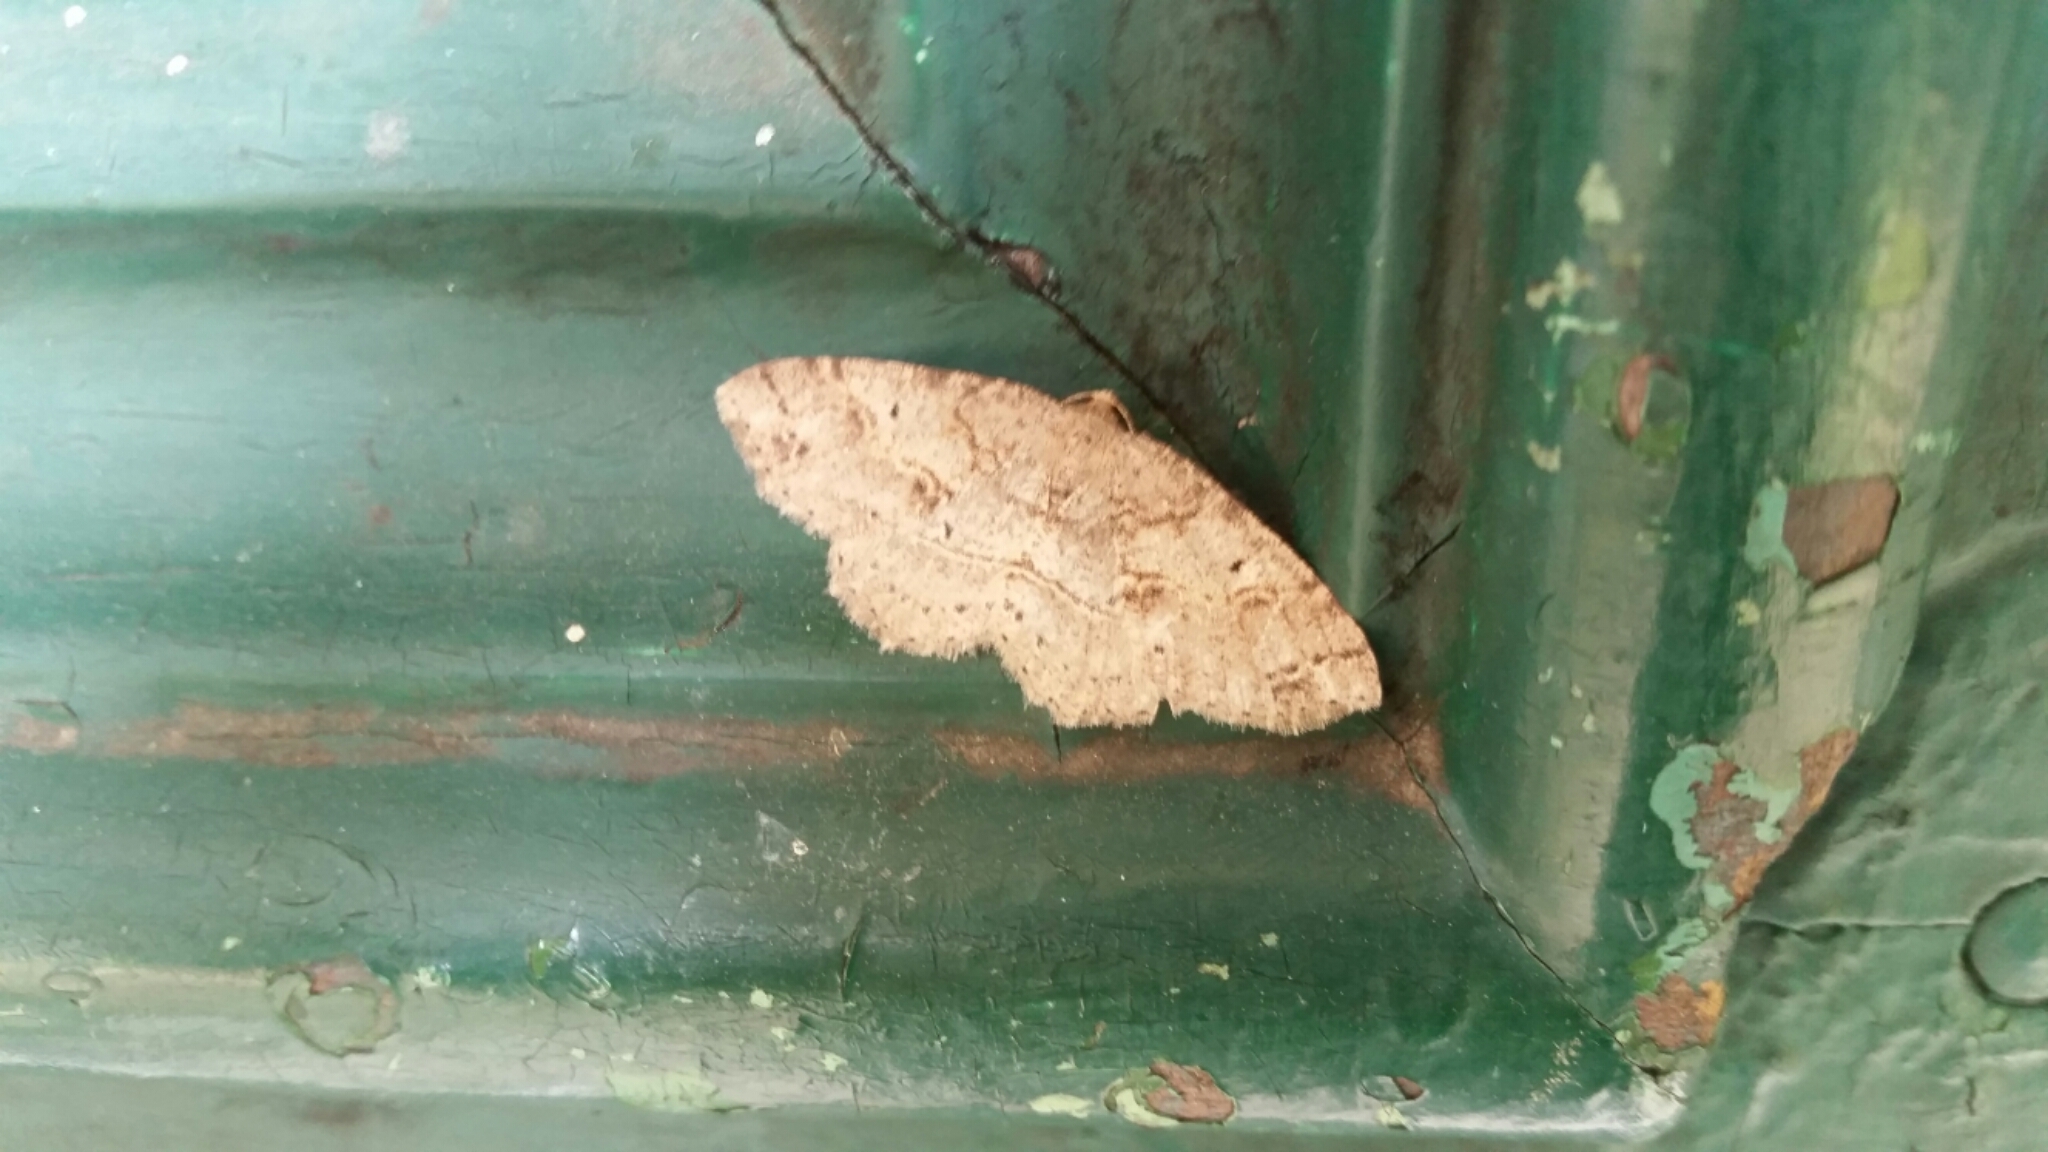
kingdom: Animalia
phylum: Arthropoda
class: Insecta
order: Lepidoptera
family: Geometridae
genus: Melanolophia
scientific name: Melanolophia signataria
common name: Signate melanolophia
